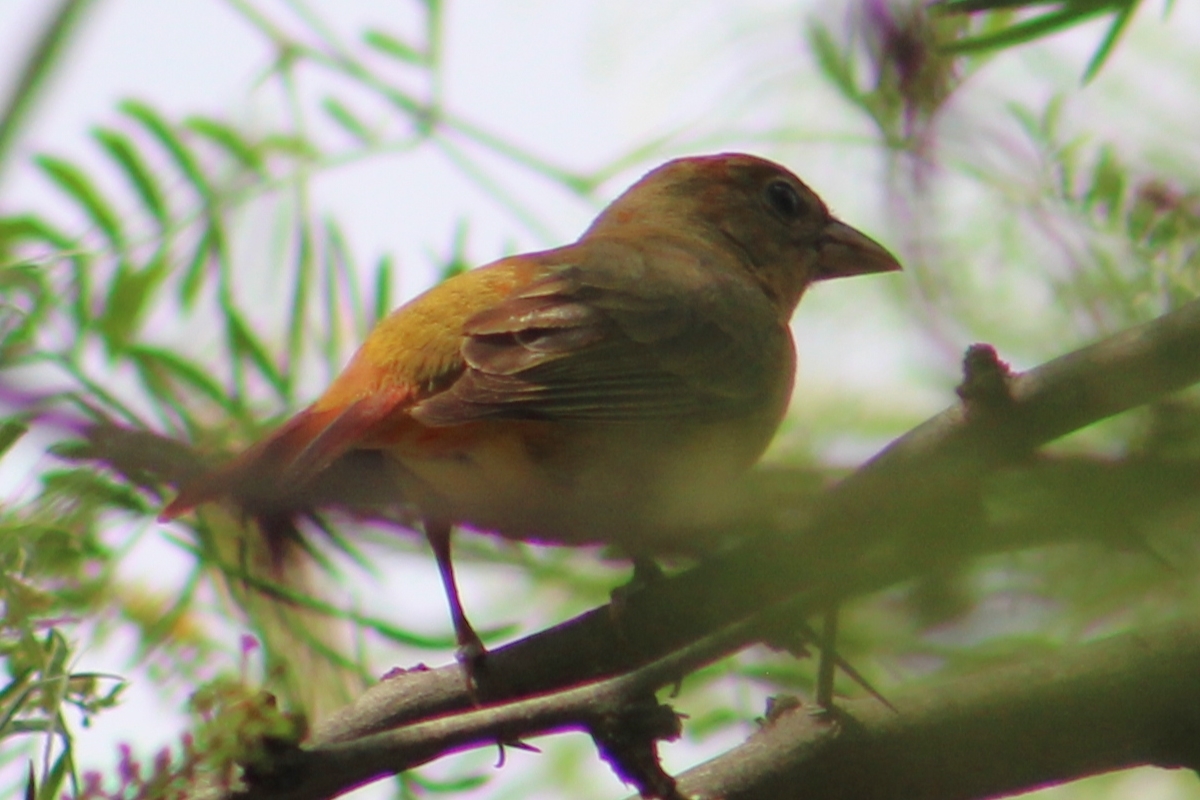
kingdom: Animalia
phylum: Chordata
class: Aves
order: Passeriformes
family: Cardinalidae
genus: Piranga
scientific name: Piranga rubra
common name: Summer tanager
